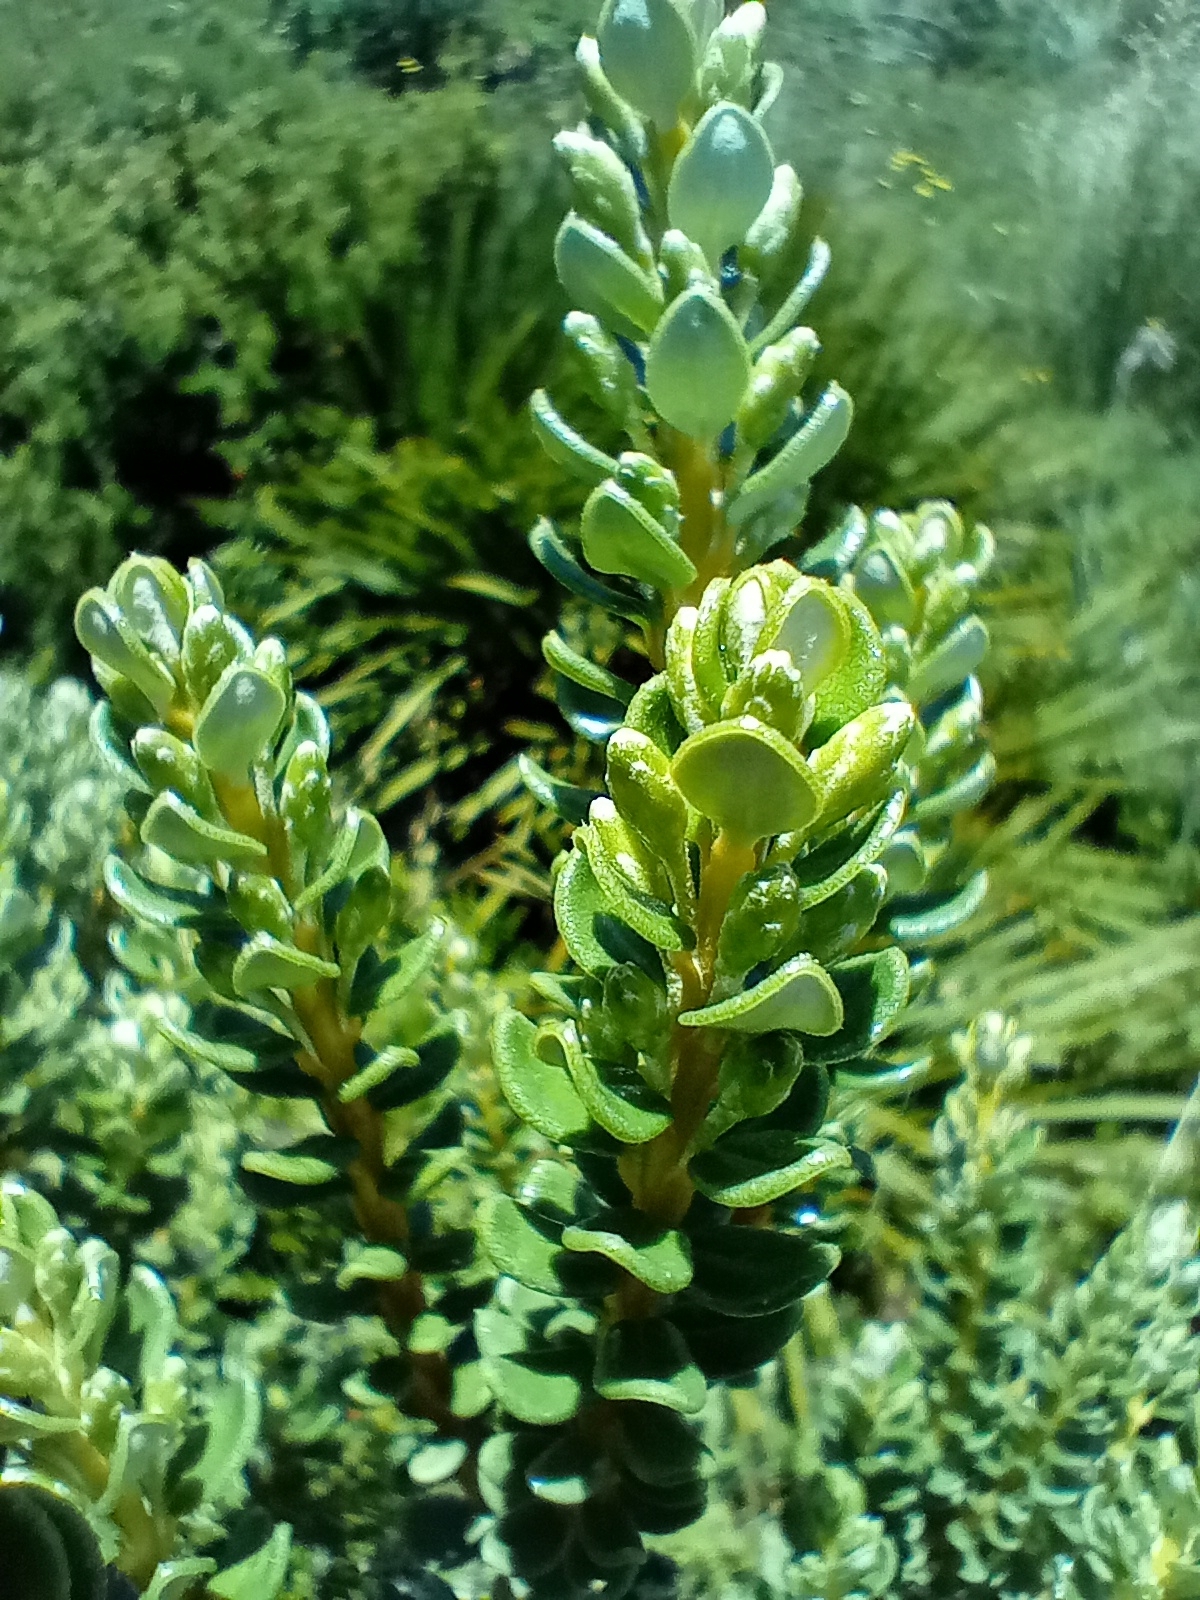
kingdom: Plantae
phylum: Tracheophyta
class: Magnoliopsida
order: Asterales
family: Asteraceae
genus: Olearia
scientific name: Olearia nummularifolia
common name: Sticky daisybush
